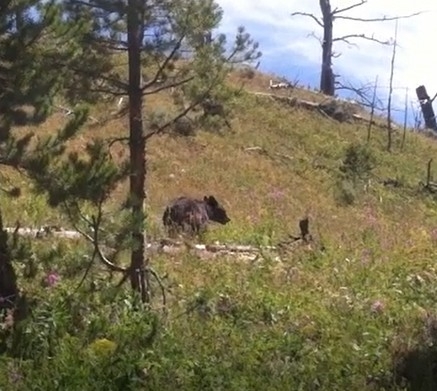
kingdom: Animalia
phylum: Chordata
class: Mammalia
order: Carnivora
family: Ursidae
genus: Ursus
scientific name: Ursus americanus
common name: American black bear
